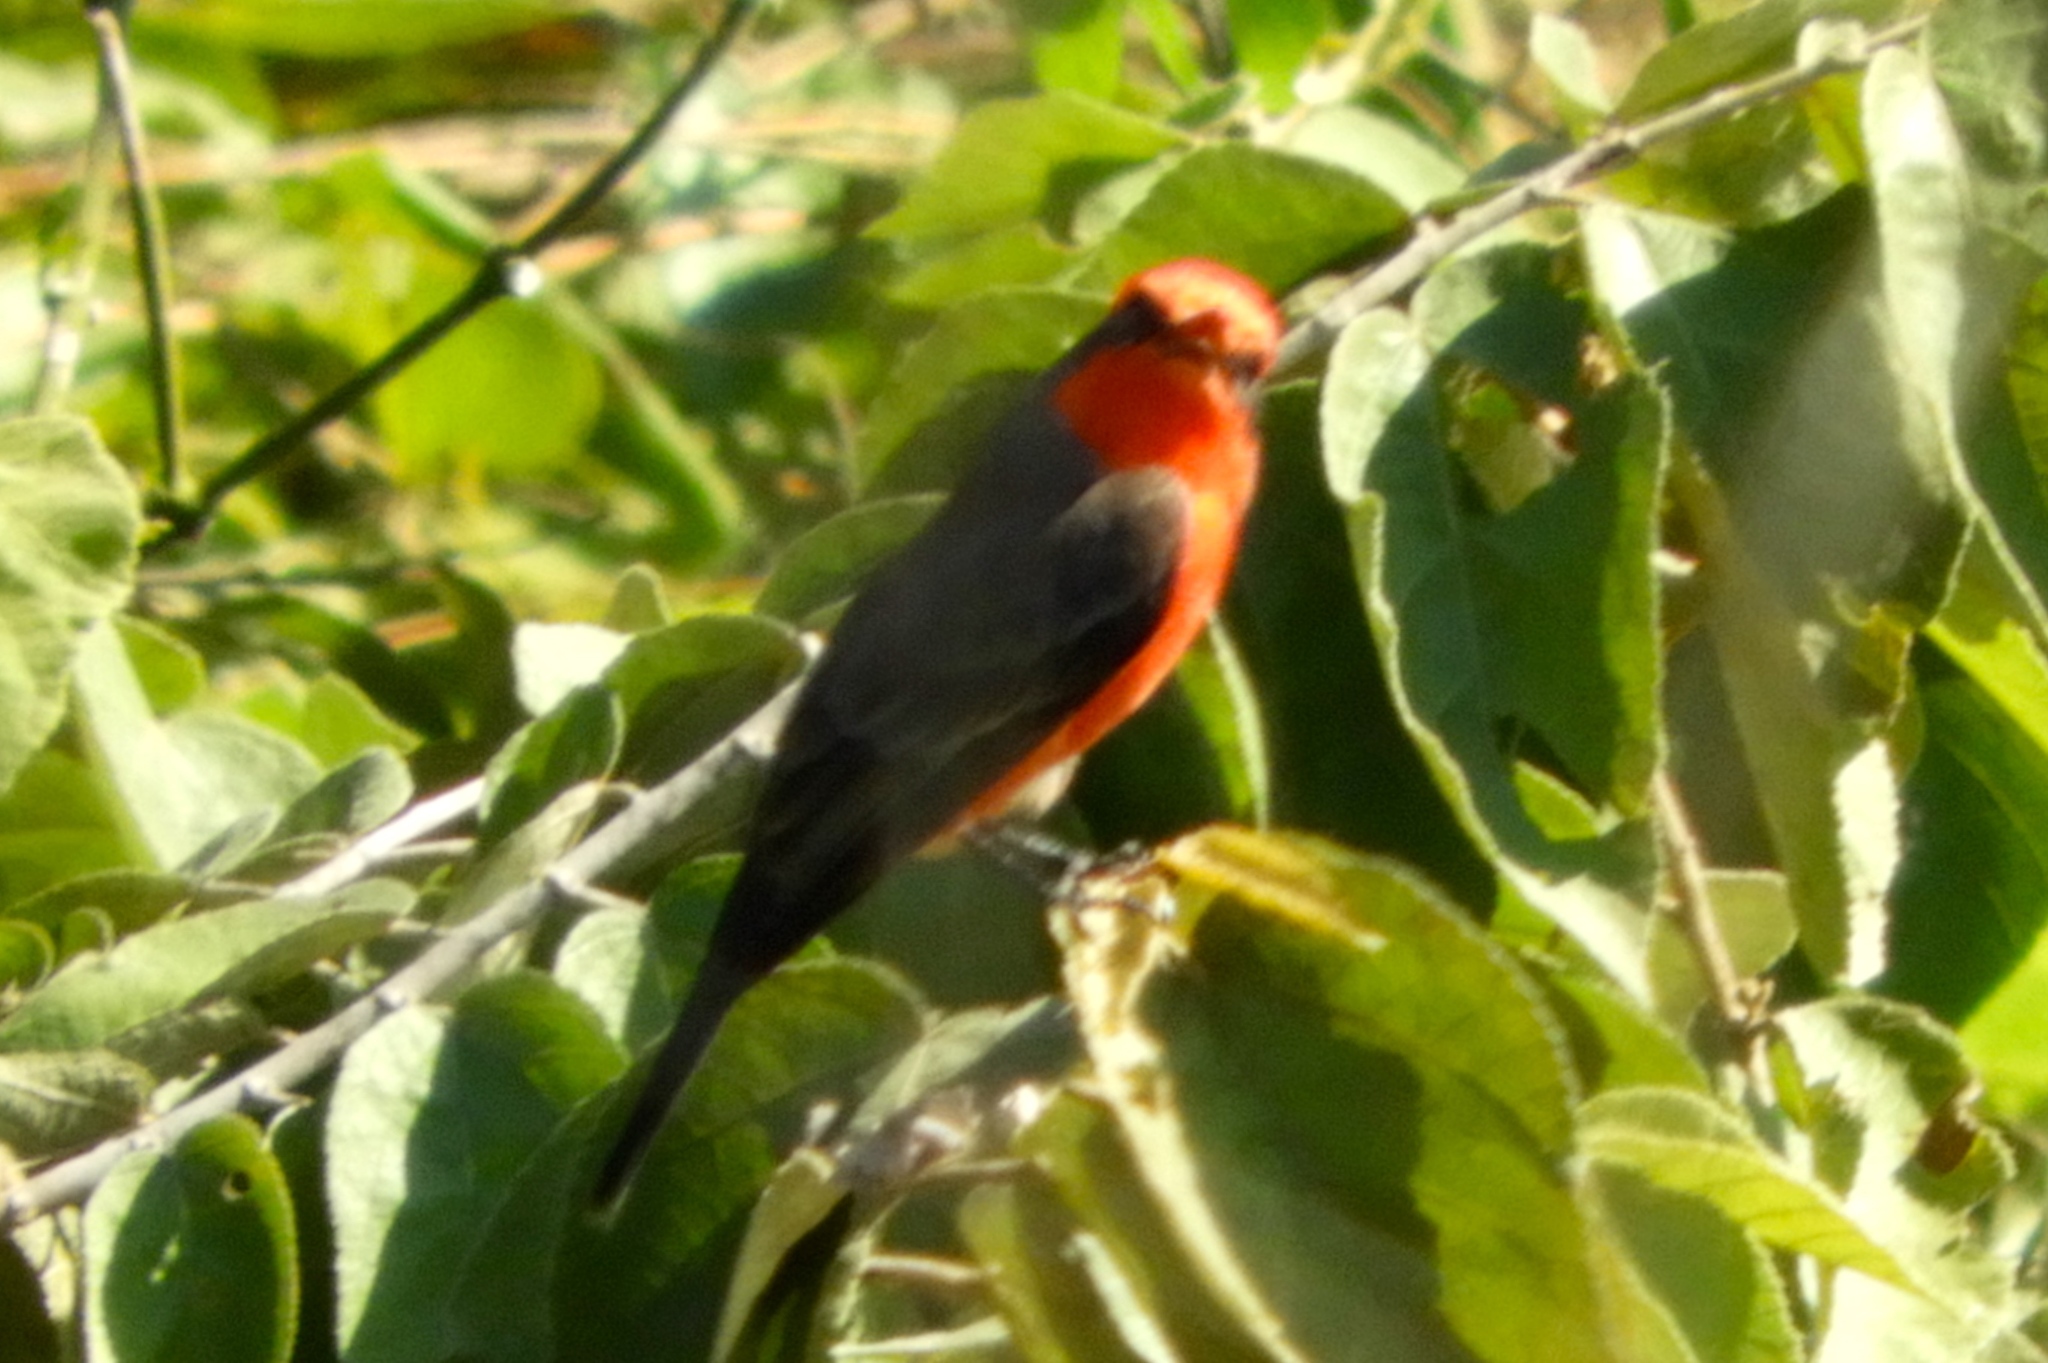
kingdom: Animalia
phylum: Chordata
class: Aves
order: Passeriformes
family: Tyrannidae
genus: Pyrocephalus
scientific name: Pyrocephalus rubinus
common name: Vermilion flycatcher
